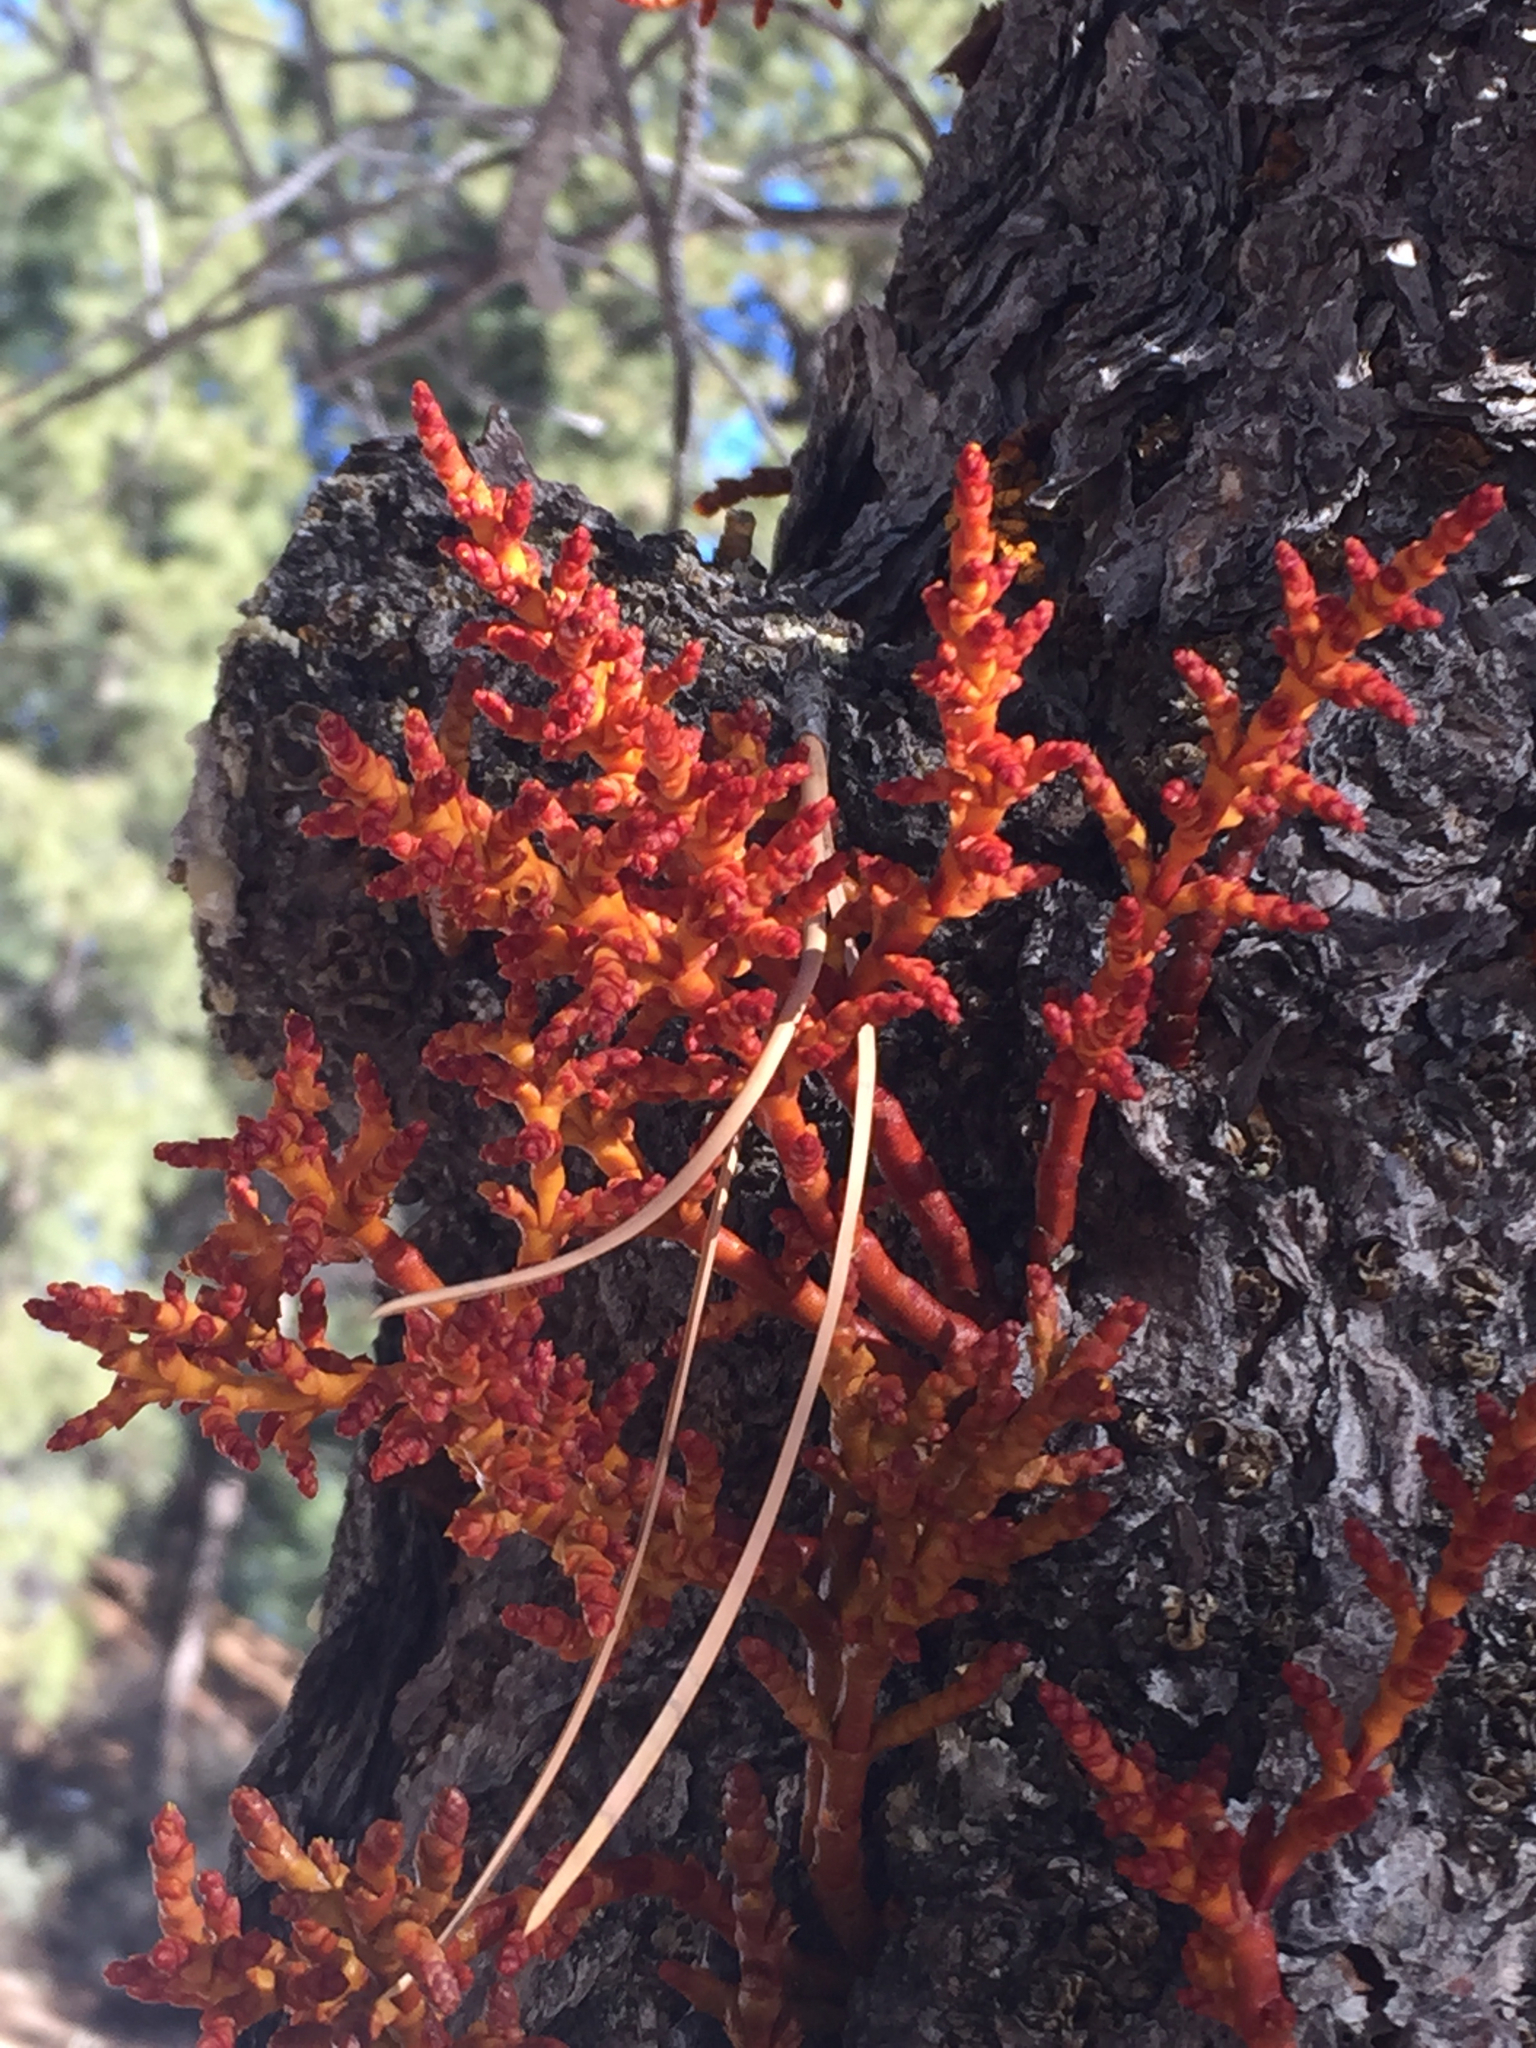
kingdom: Plantae
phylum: Tracheophyta
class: Magnoliopsida
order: Santalales
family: Viscaceae
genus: Arceuthobium
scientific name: Arceuthobium vaginatum
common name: Southwestern dwarf-mistletoe
